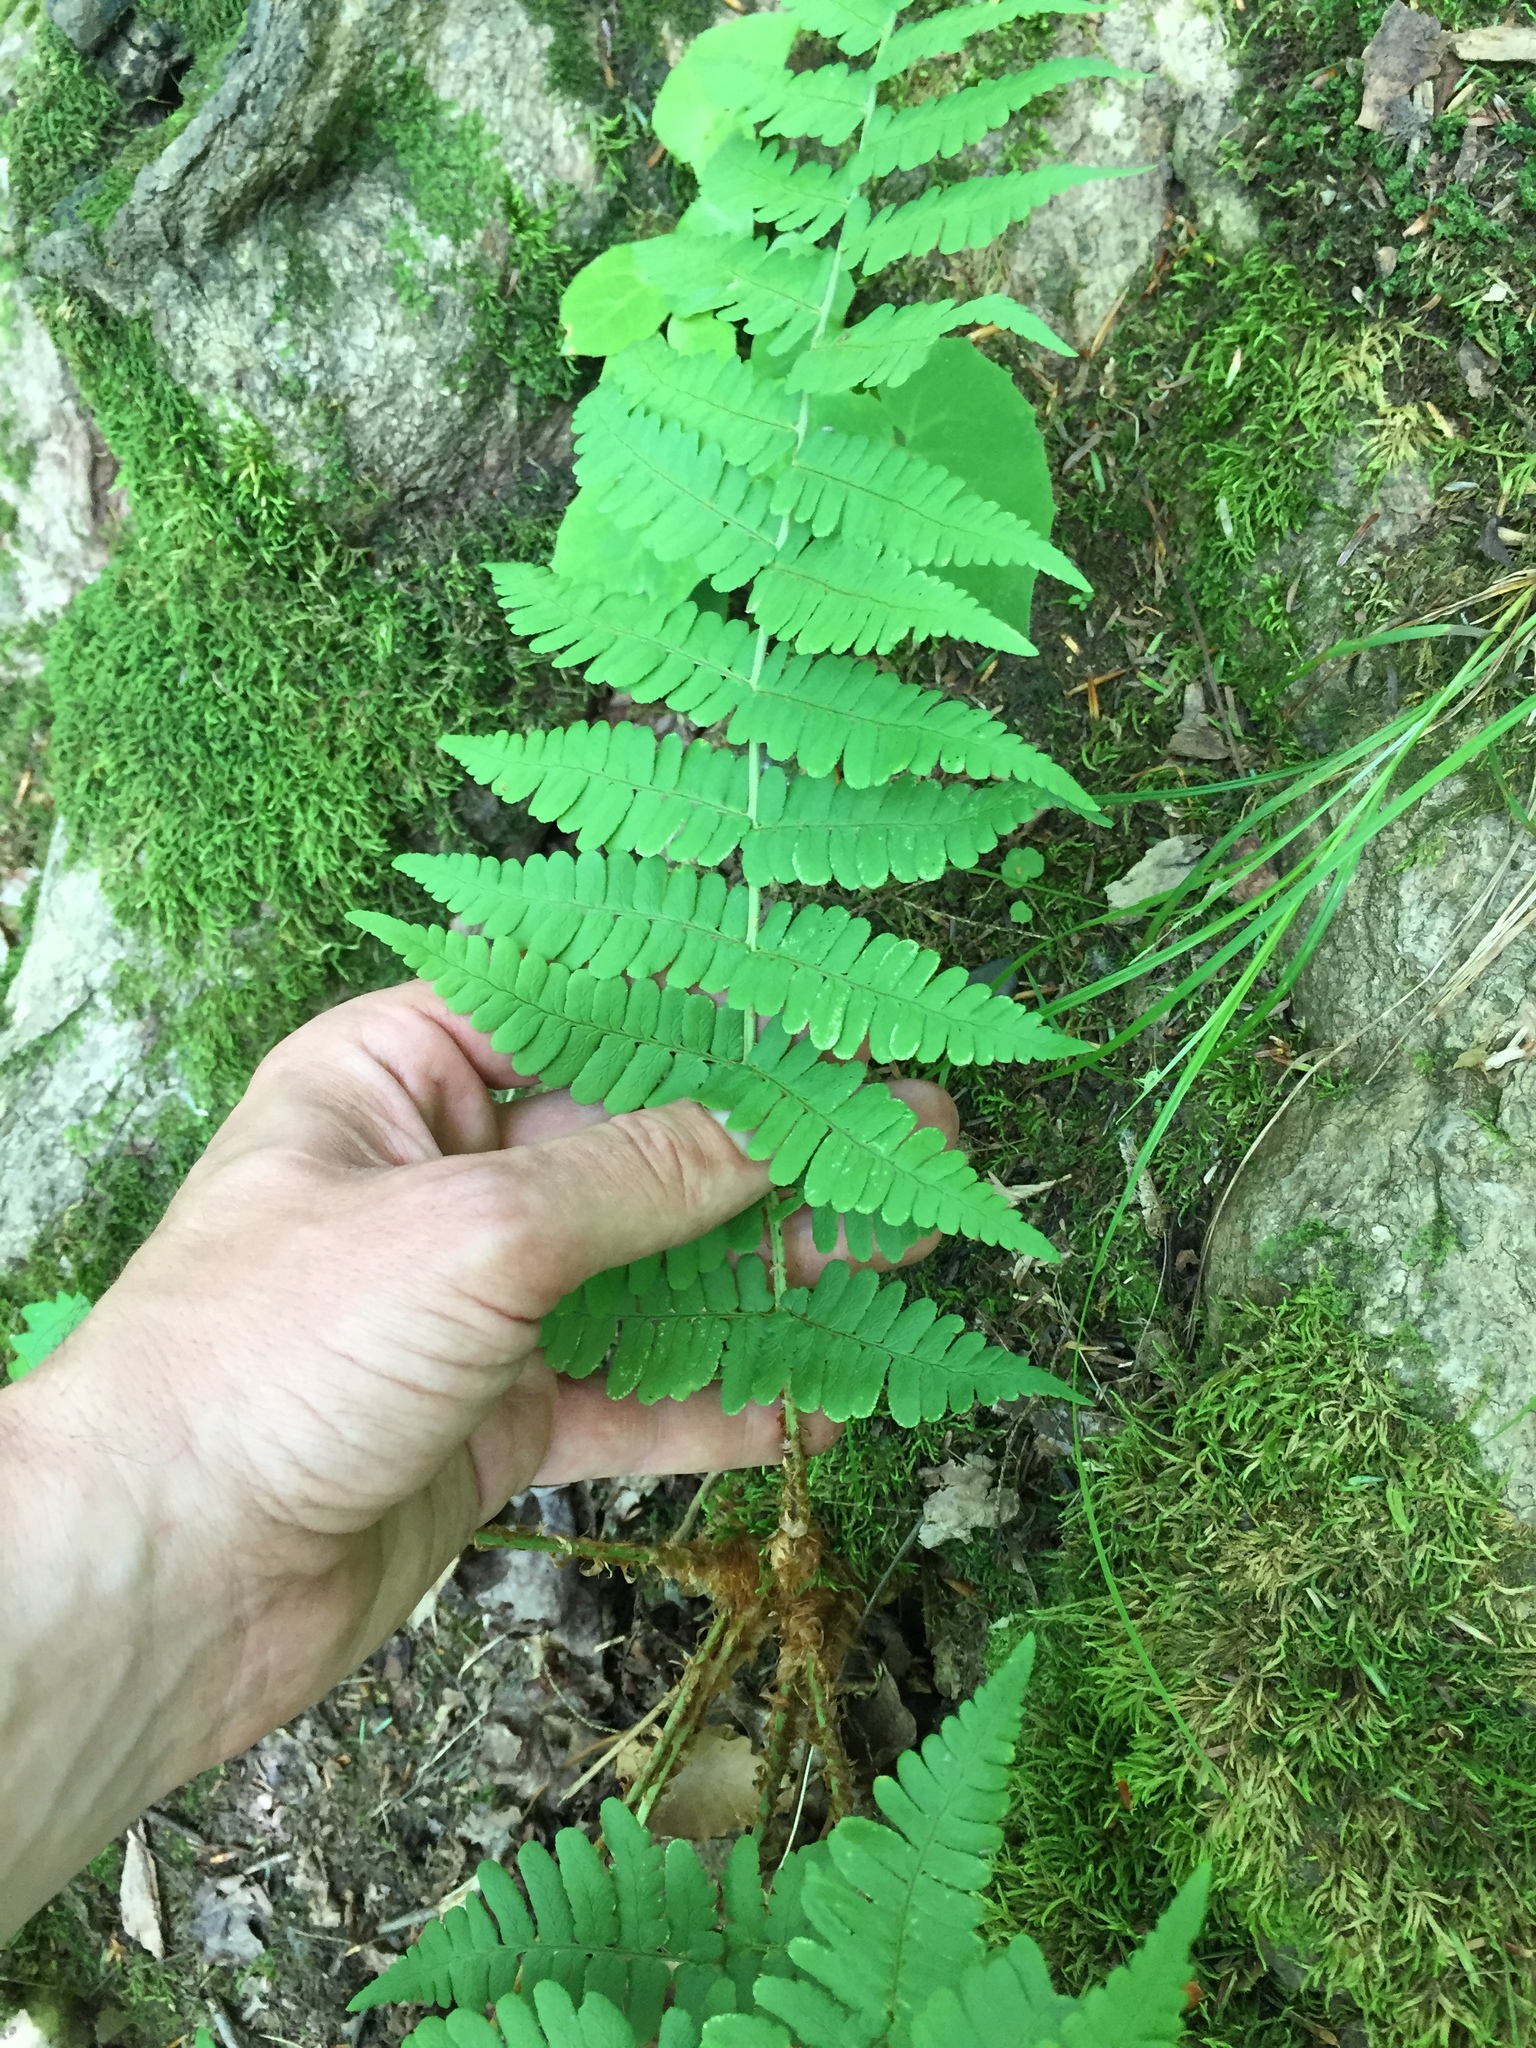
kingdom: Plantae
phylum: Tracheophyta
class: Polypodiopsida
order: Polypodiales
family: Dryopteridaceae
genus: Dryopteris
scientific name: Dryopteris marginalis
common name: Marginal wood fern
